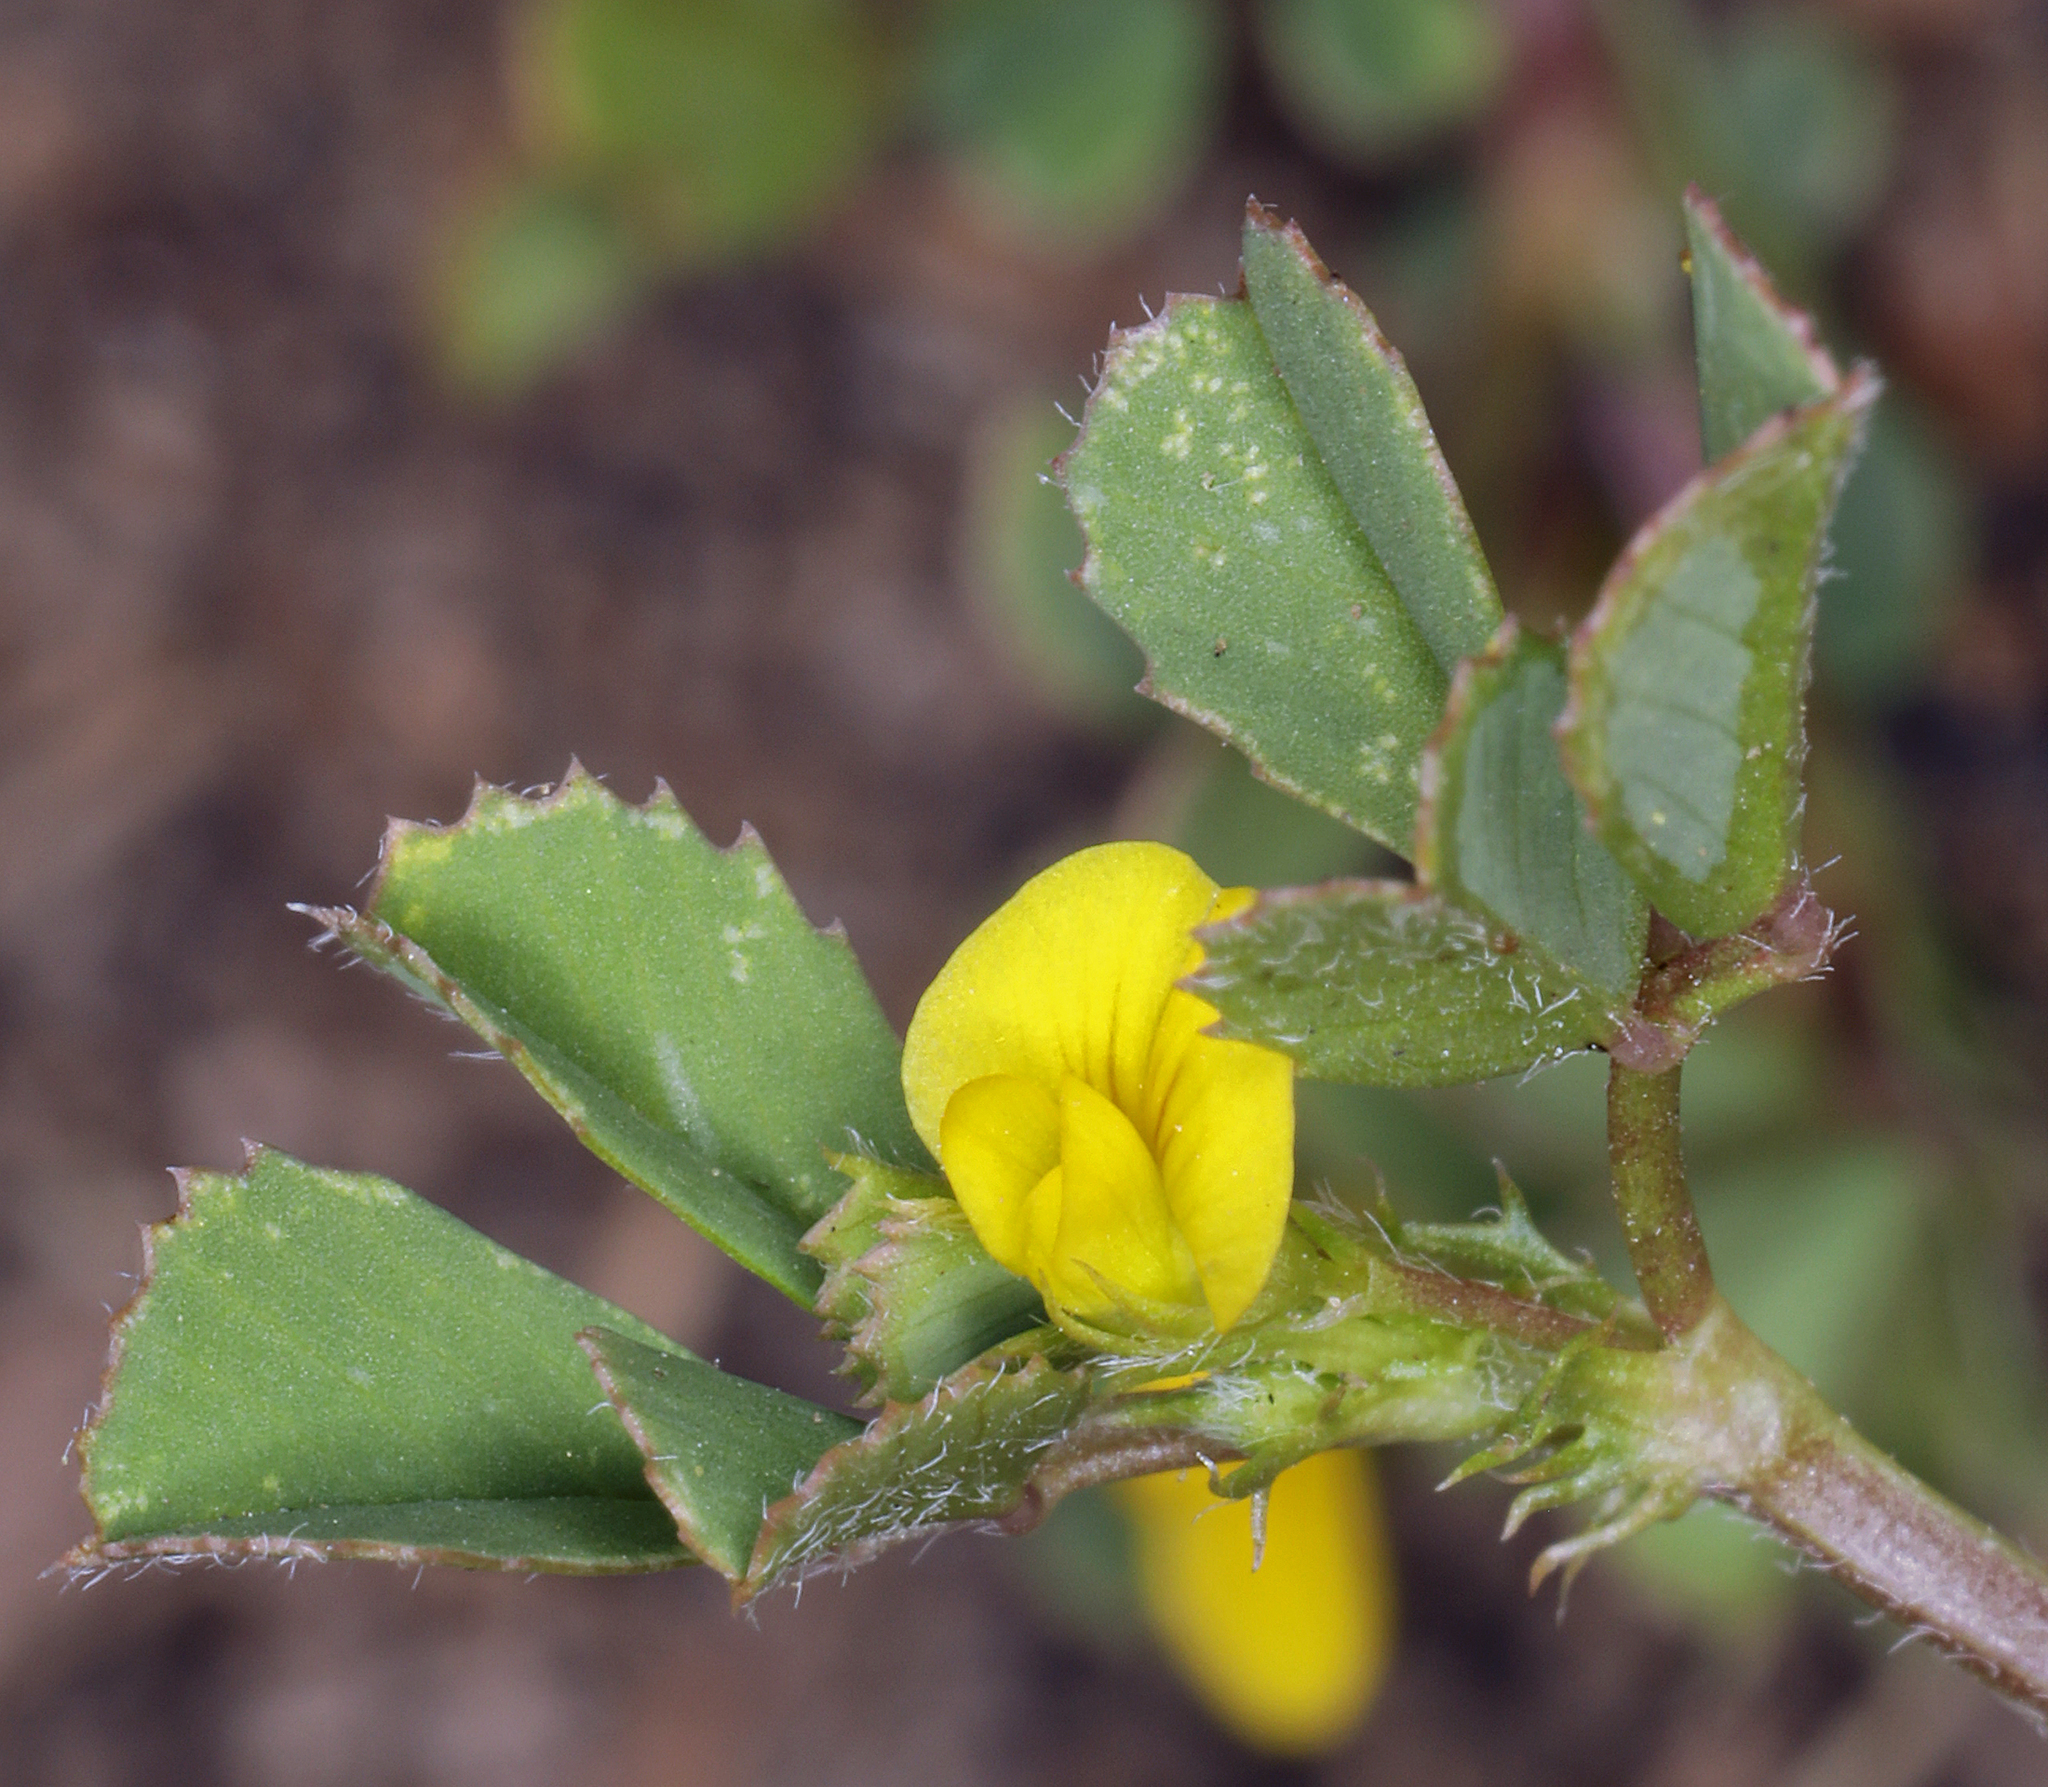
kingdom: Plantae
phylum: Tracheophyta
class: Magnoliopsida
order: Fabales
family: Fabaceae
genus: Medicago
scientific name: Medicago polymorpha
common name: Burclover
